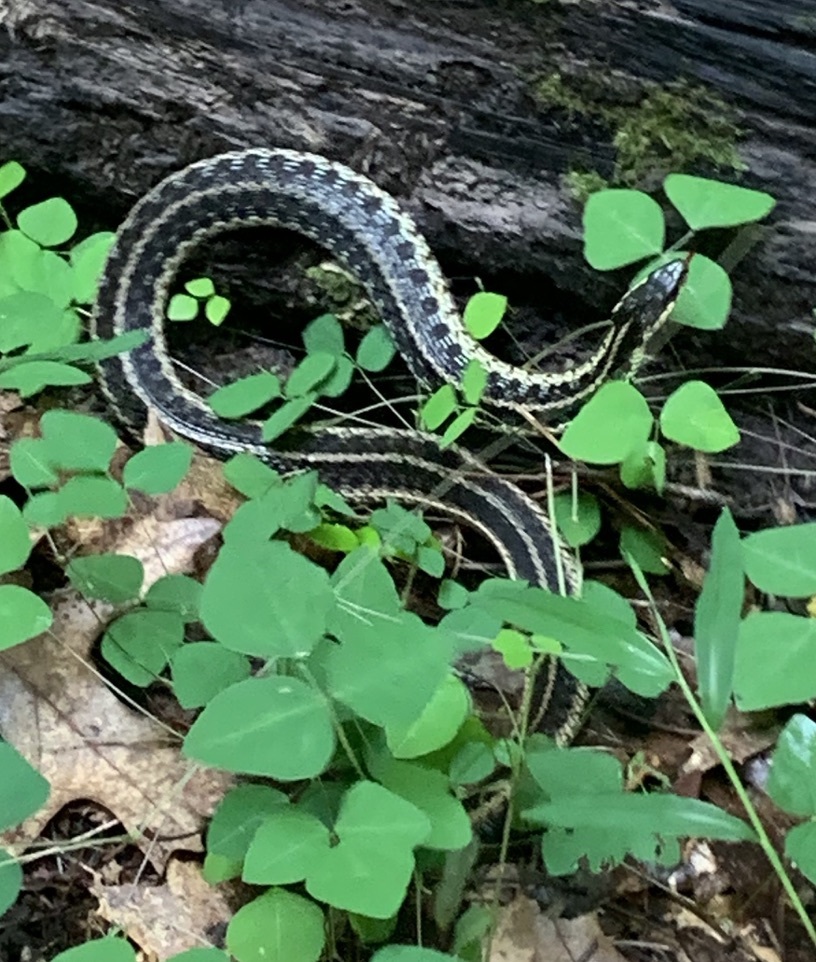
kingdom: Animalia
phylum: Chordata
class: Squamata
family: Colubridae
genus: Thamnophis
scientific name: Thamnophis sirtalis
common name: Common garter snake
